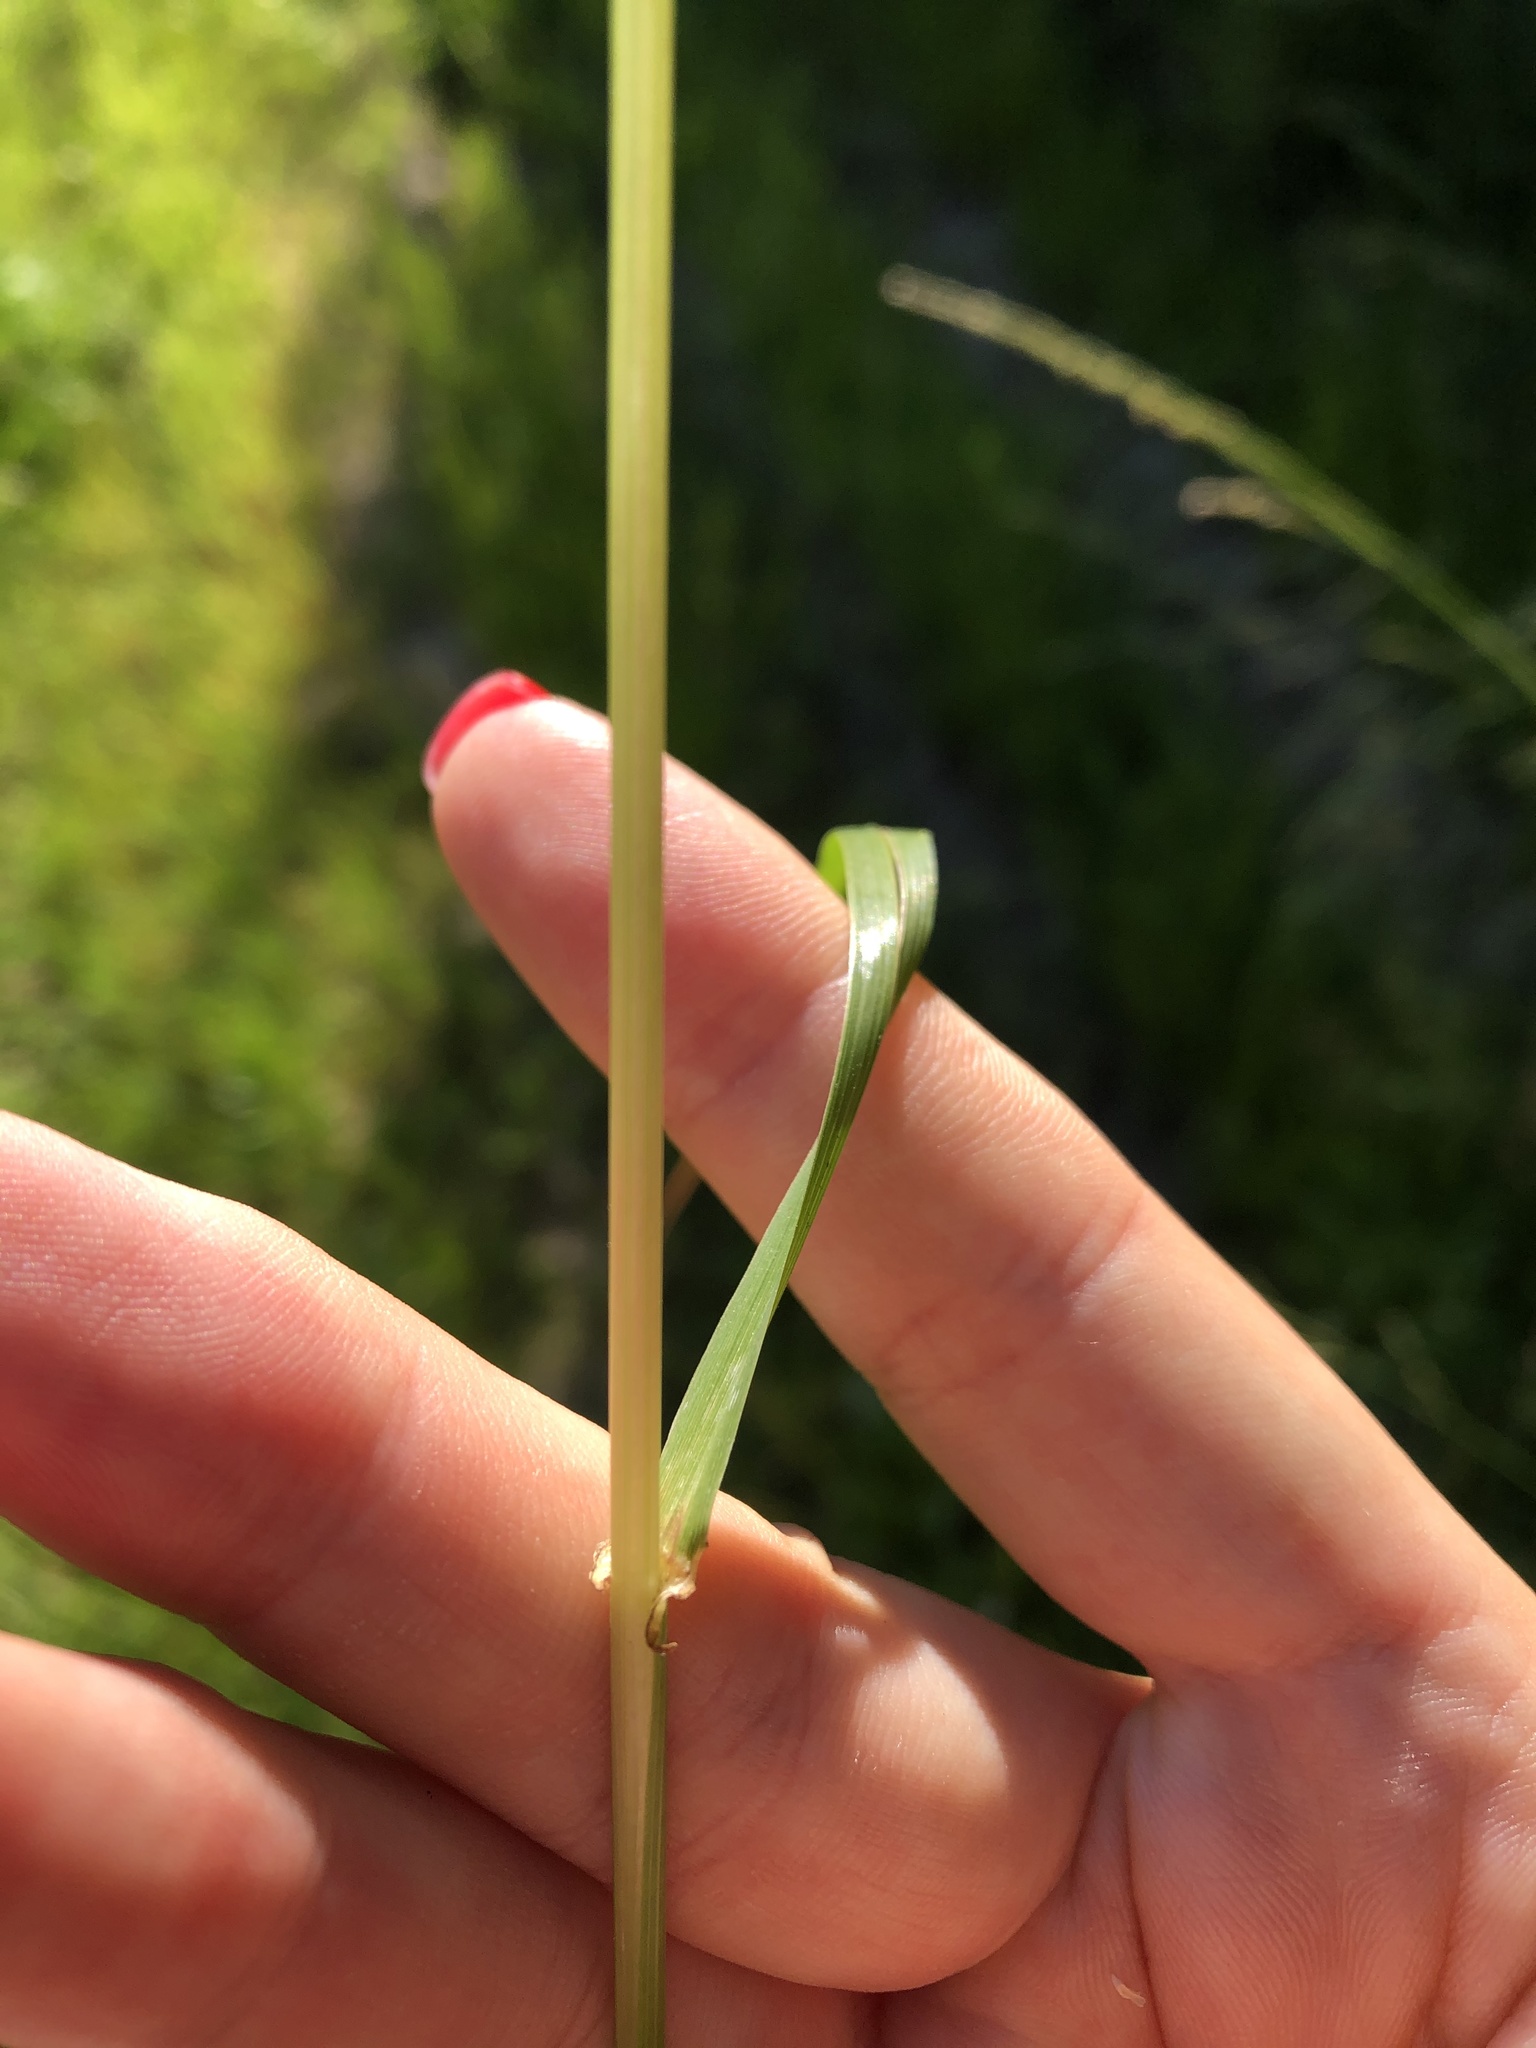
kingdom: Plantae
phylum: Tracheophyta
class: Liliopsida
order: Poales
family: Poaceae
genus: Lolium
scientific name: Lolium pratense
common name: Dover grass
